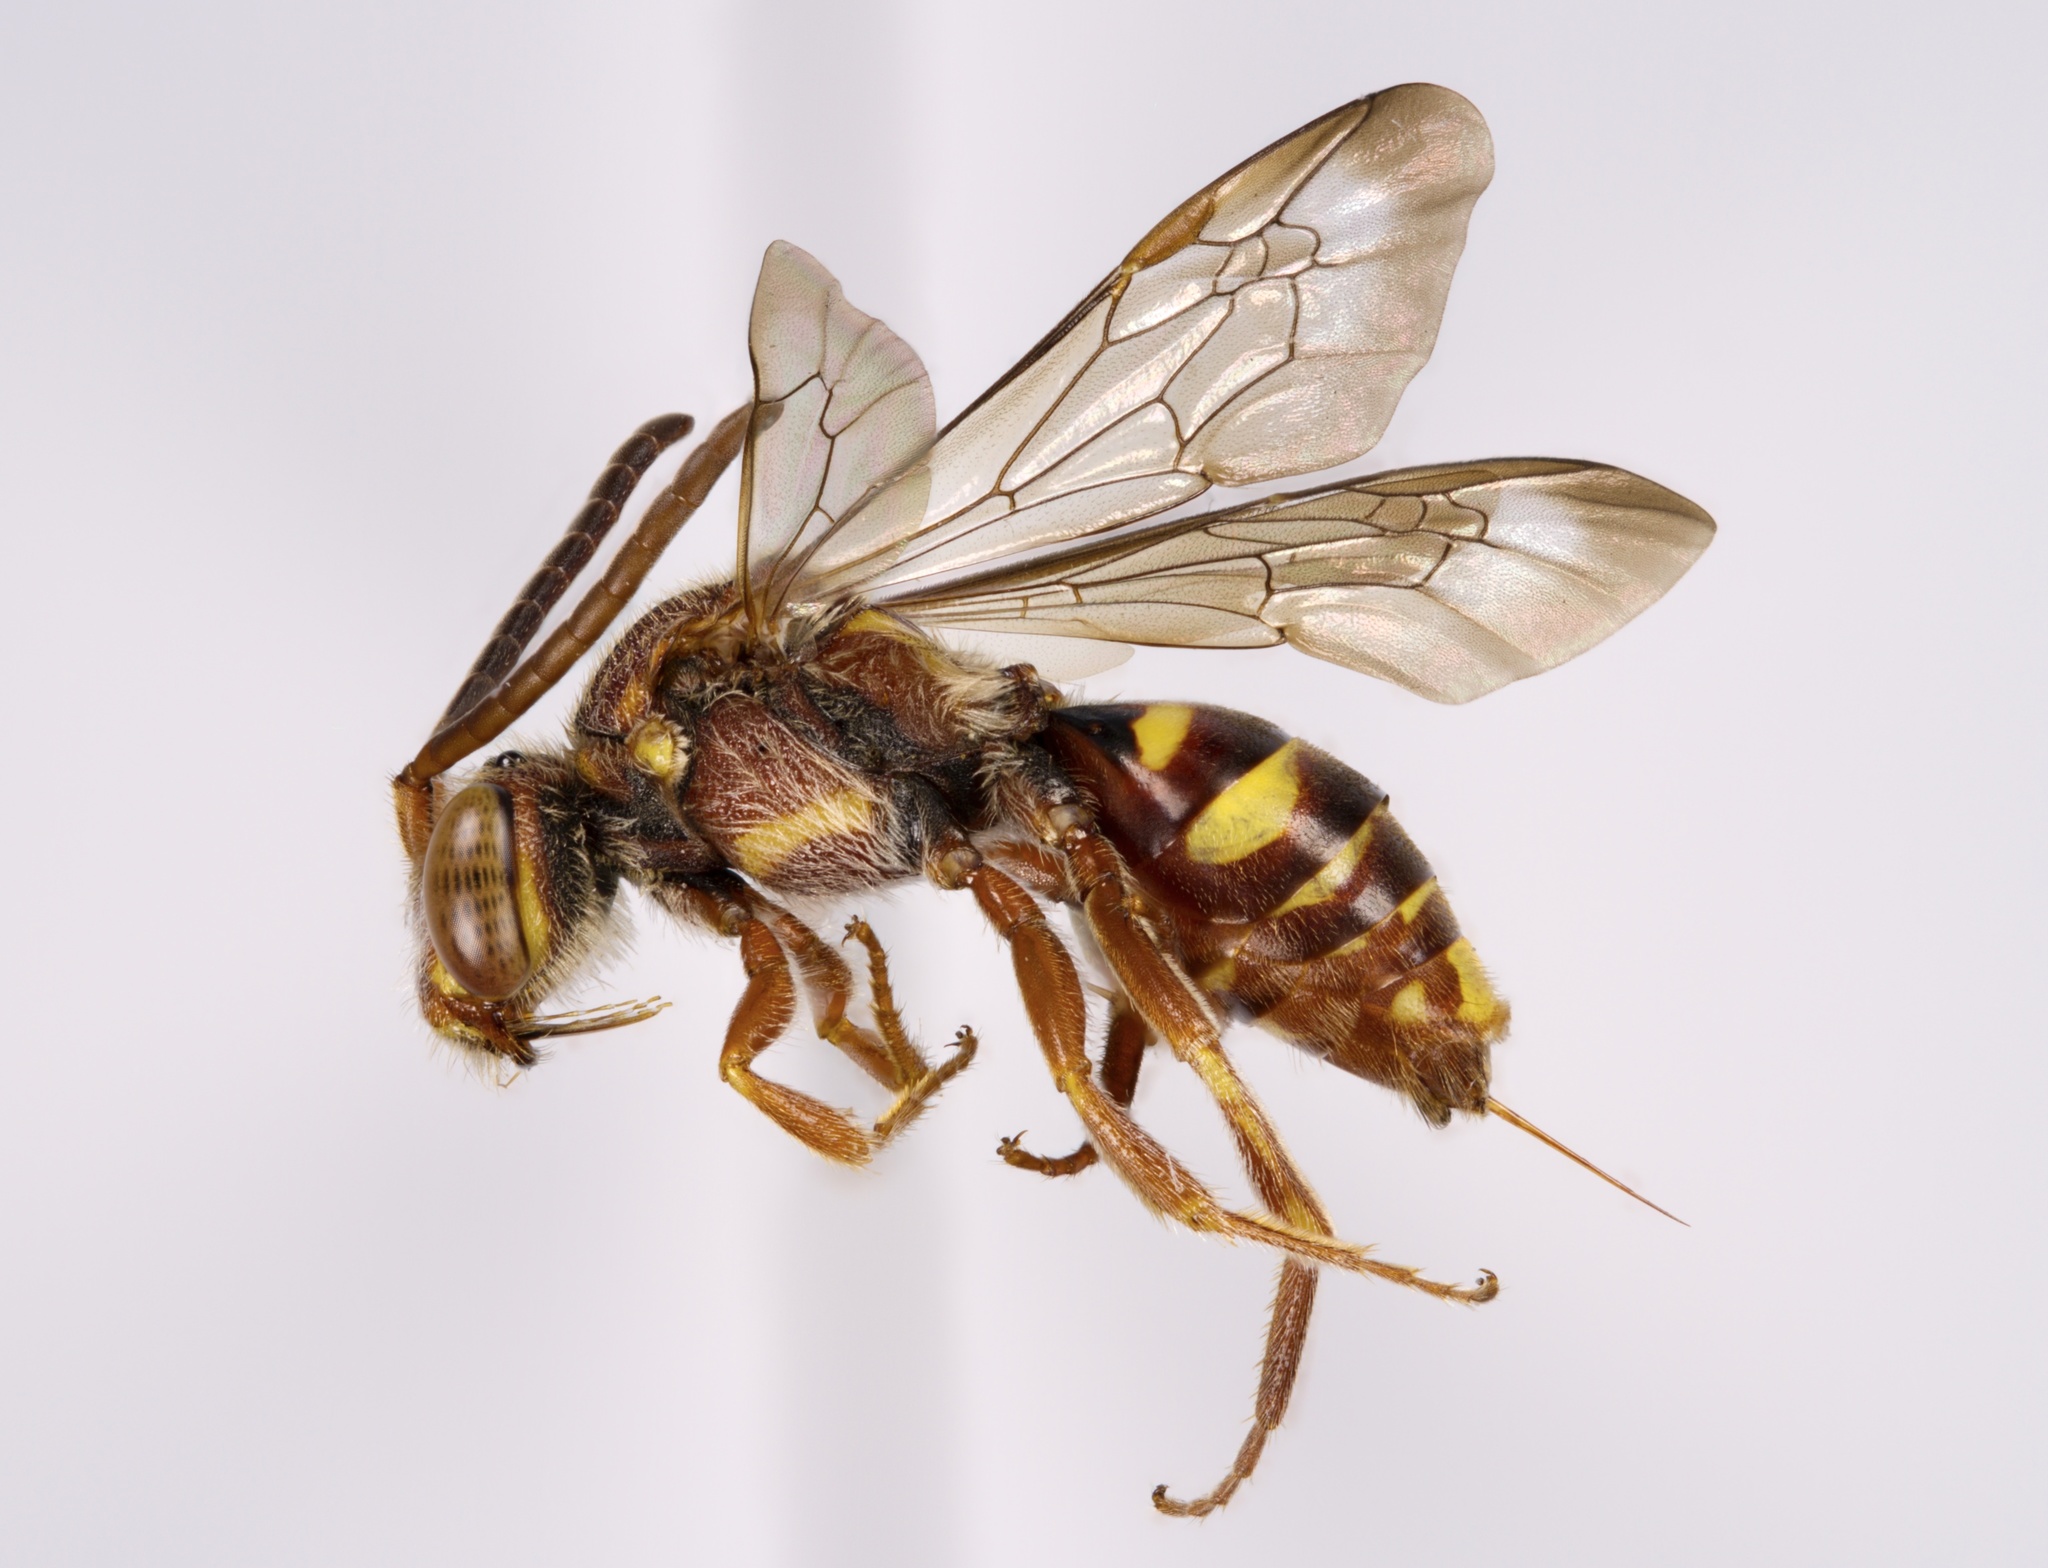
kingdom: Animalia
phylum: Arthropoda
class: Insecta
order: Hymenoptera
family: Apidae
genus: Nomada
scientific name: Nomada bethunei
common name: Bethune's cuckoo nomad bee
